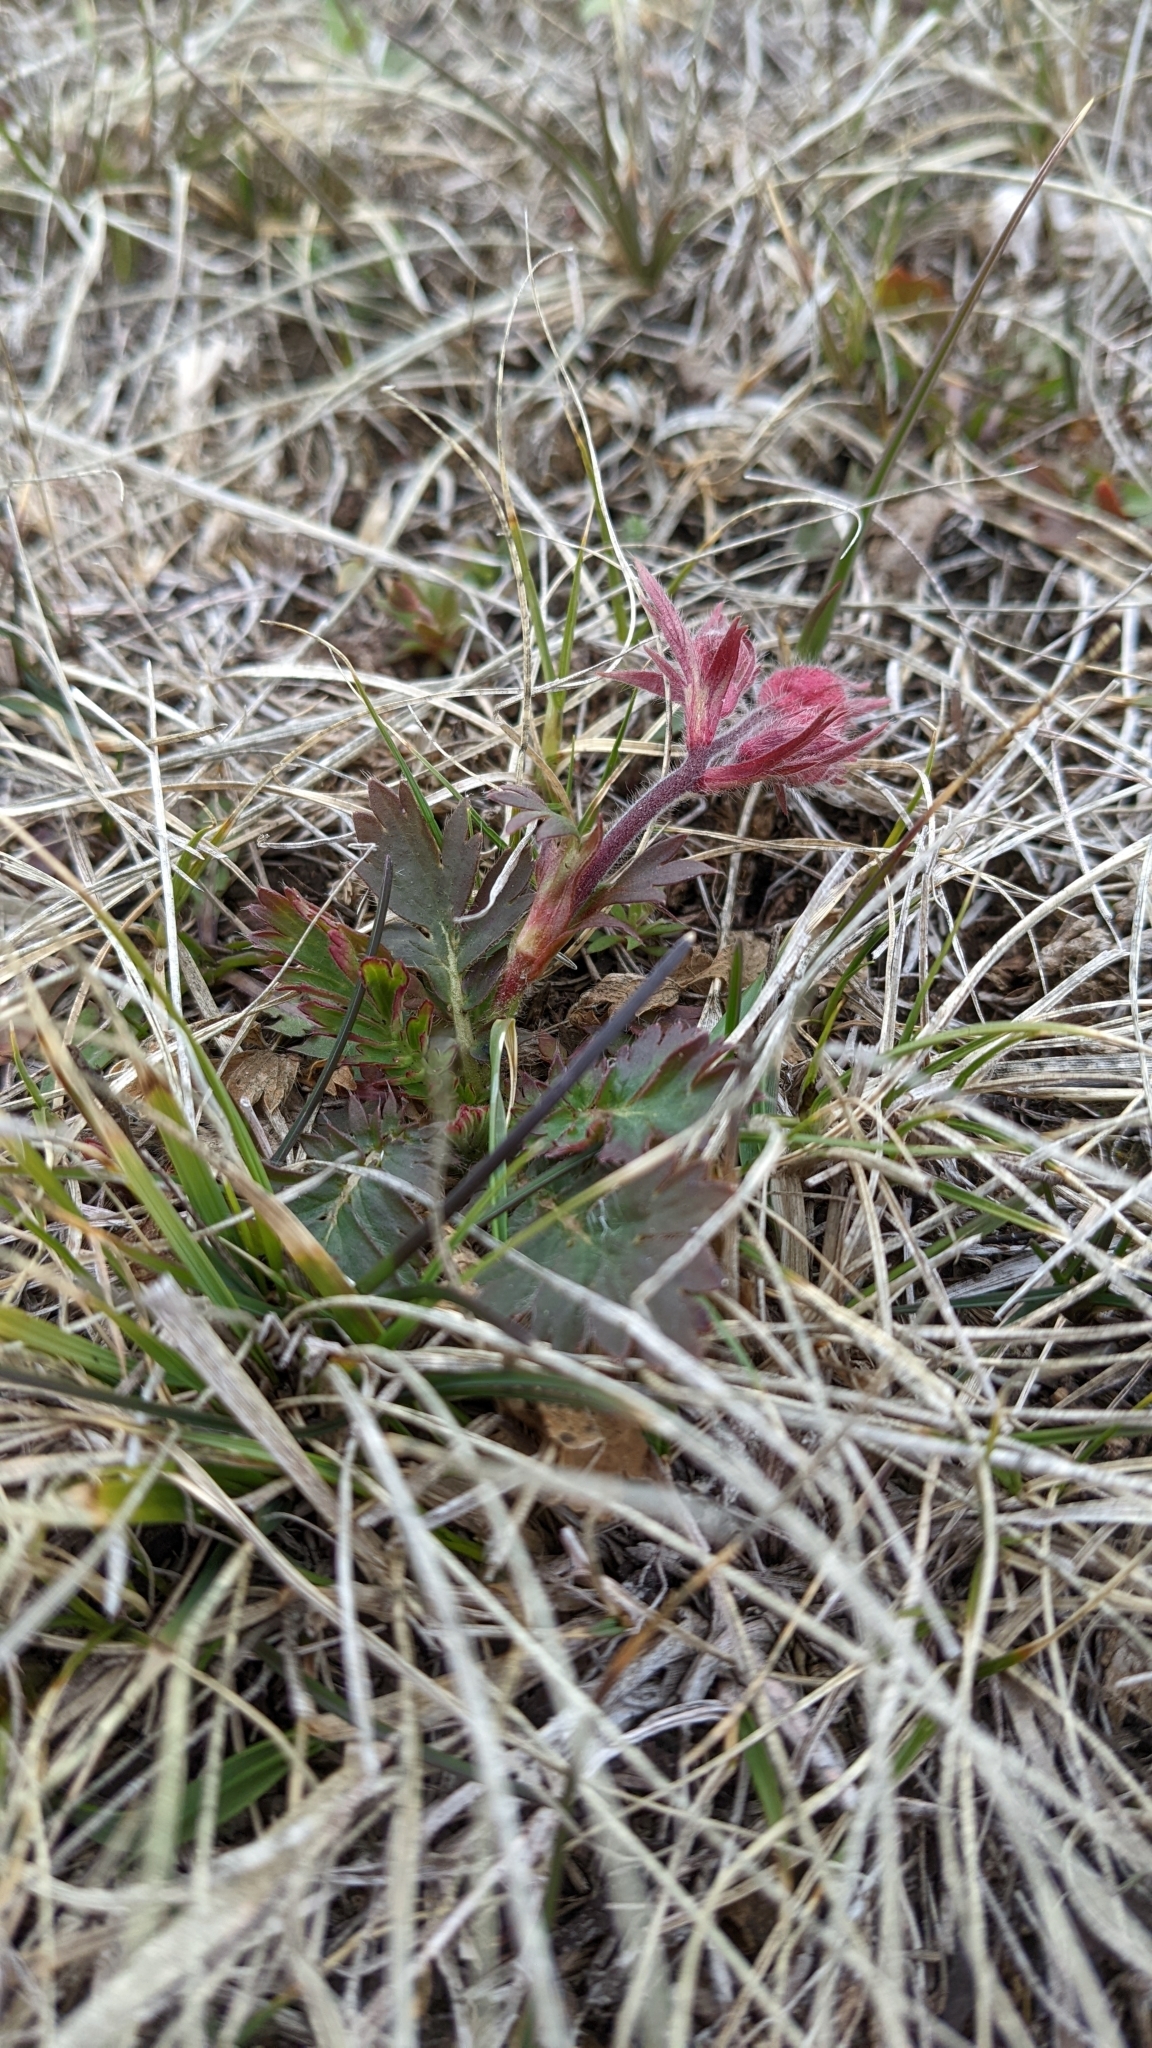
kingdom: Plantae
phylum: Tracheophyta
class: Magnoliopsida
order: Rosales
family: Rosaceae
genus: Geum
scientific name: Geum triflorum
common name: Old man's whiskers
